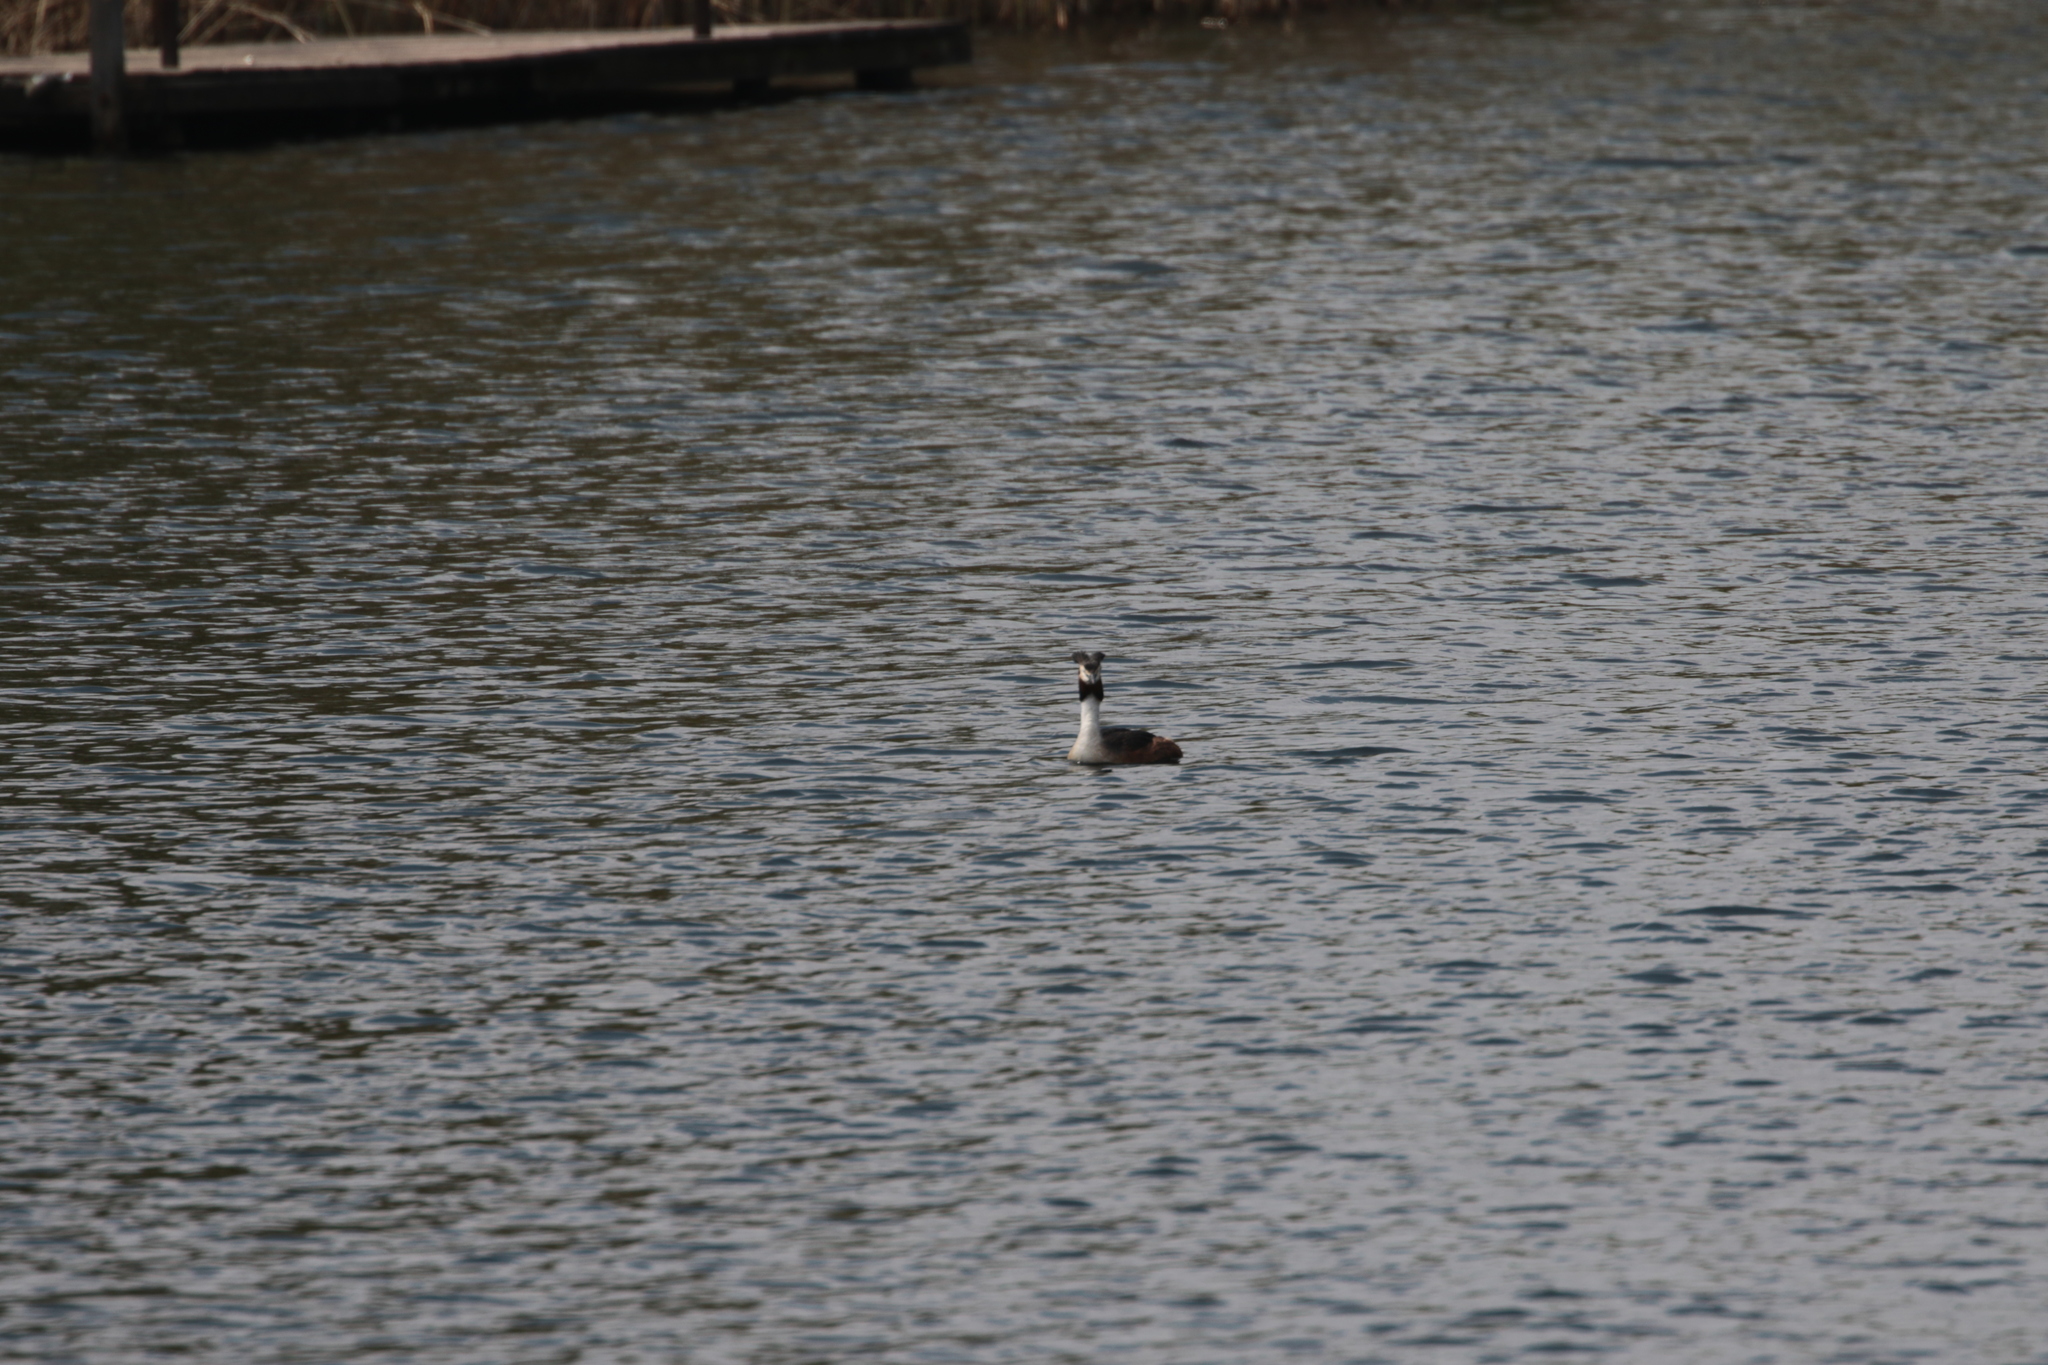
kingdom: Animalia
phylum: Chordata
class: Aves
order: Podicipediformes
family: Podicipedidae
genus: Podiceps
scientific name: Podiceps cristatus
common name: Great crested grebe
